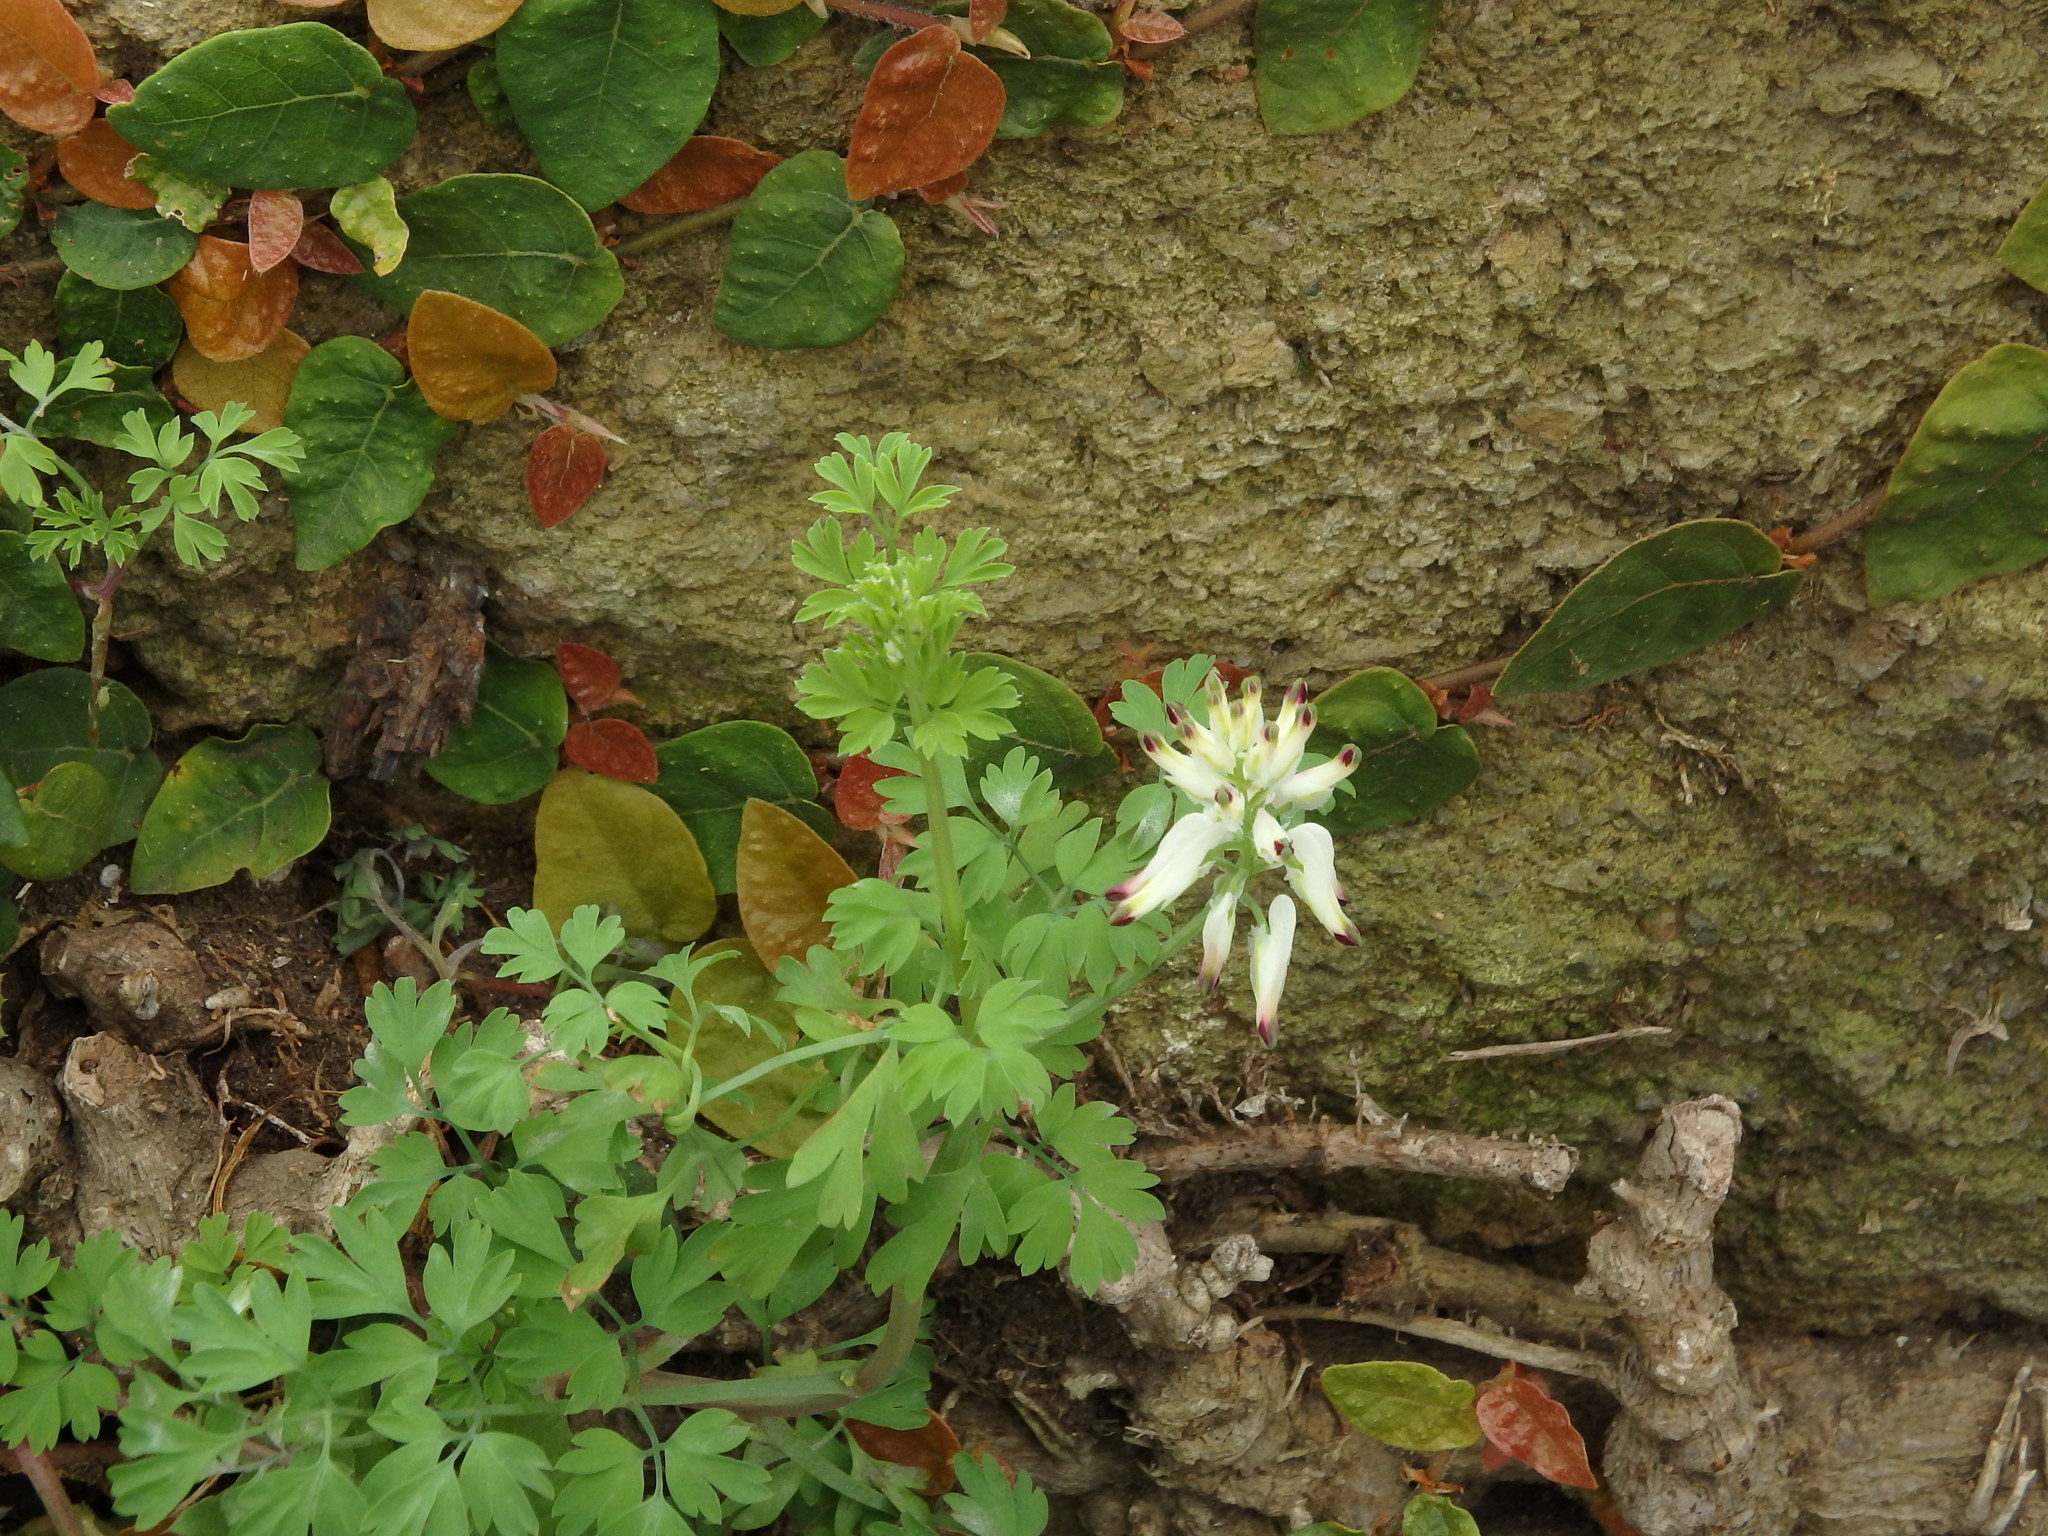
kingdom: Plantae
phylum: Tracheophyta
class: Magnoliopsida
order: Ranunculales
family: Papaveraceae
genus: Fumaria
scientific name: Fumaria capreolata
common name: White ramping-fumitory
